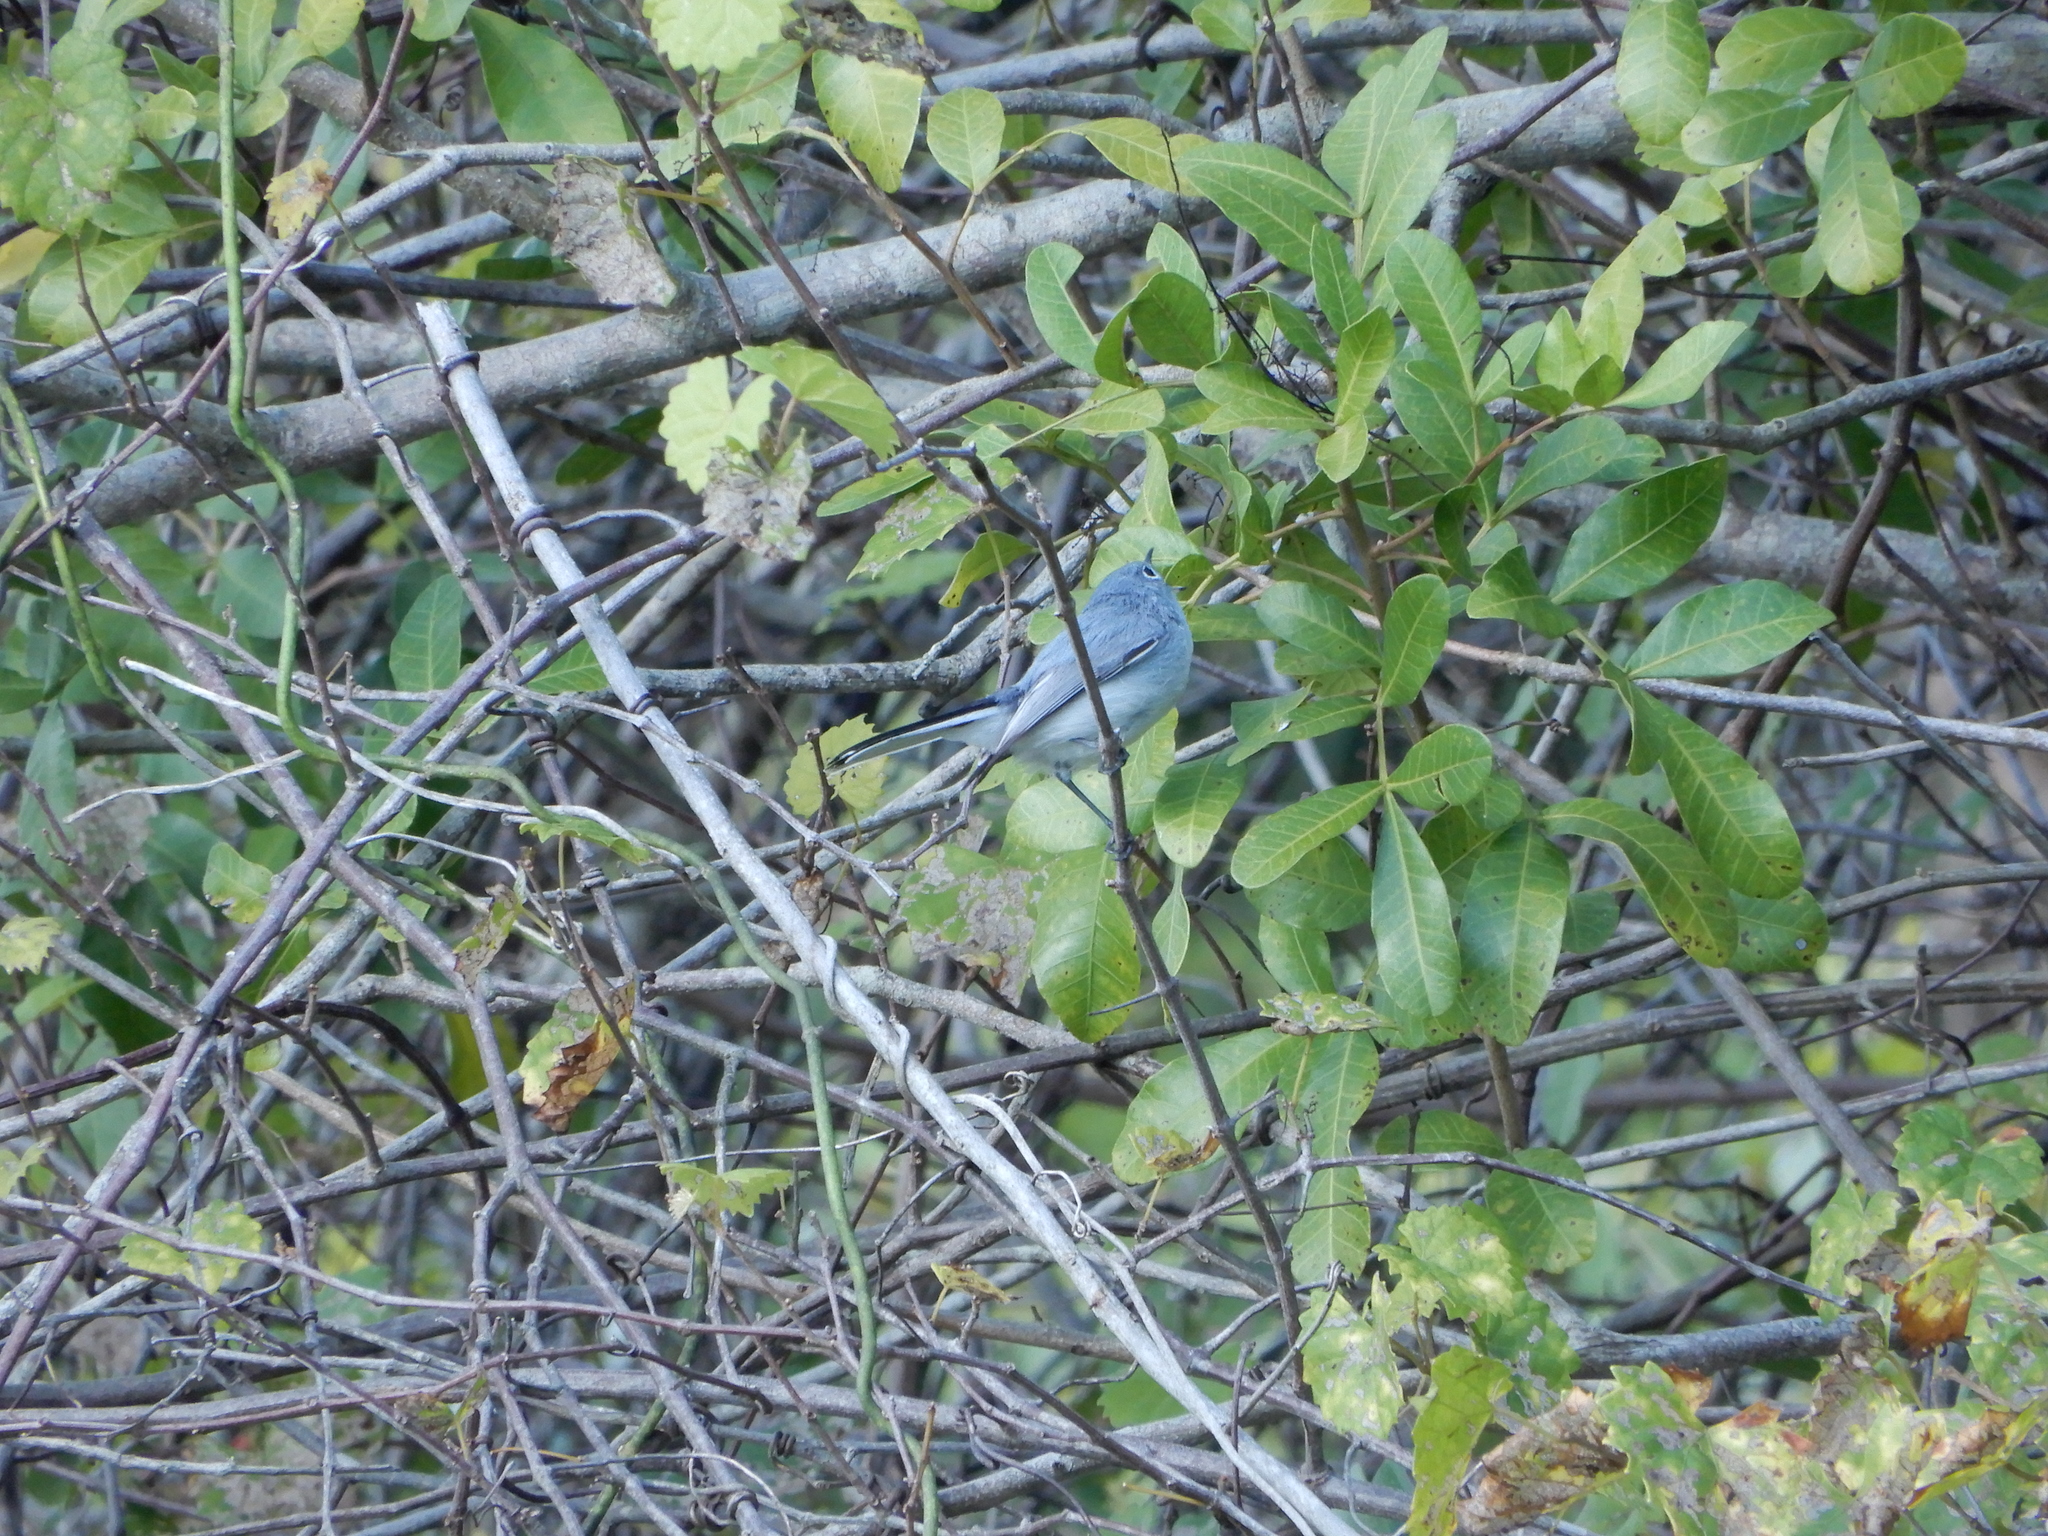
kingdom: Animalia
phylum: Chordata
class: Aves
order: Passeriformes
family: Polioptilidae
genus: Polioptila
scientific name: Polioptila caerulea
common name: Blue-gray gnatcatcher
